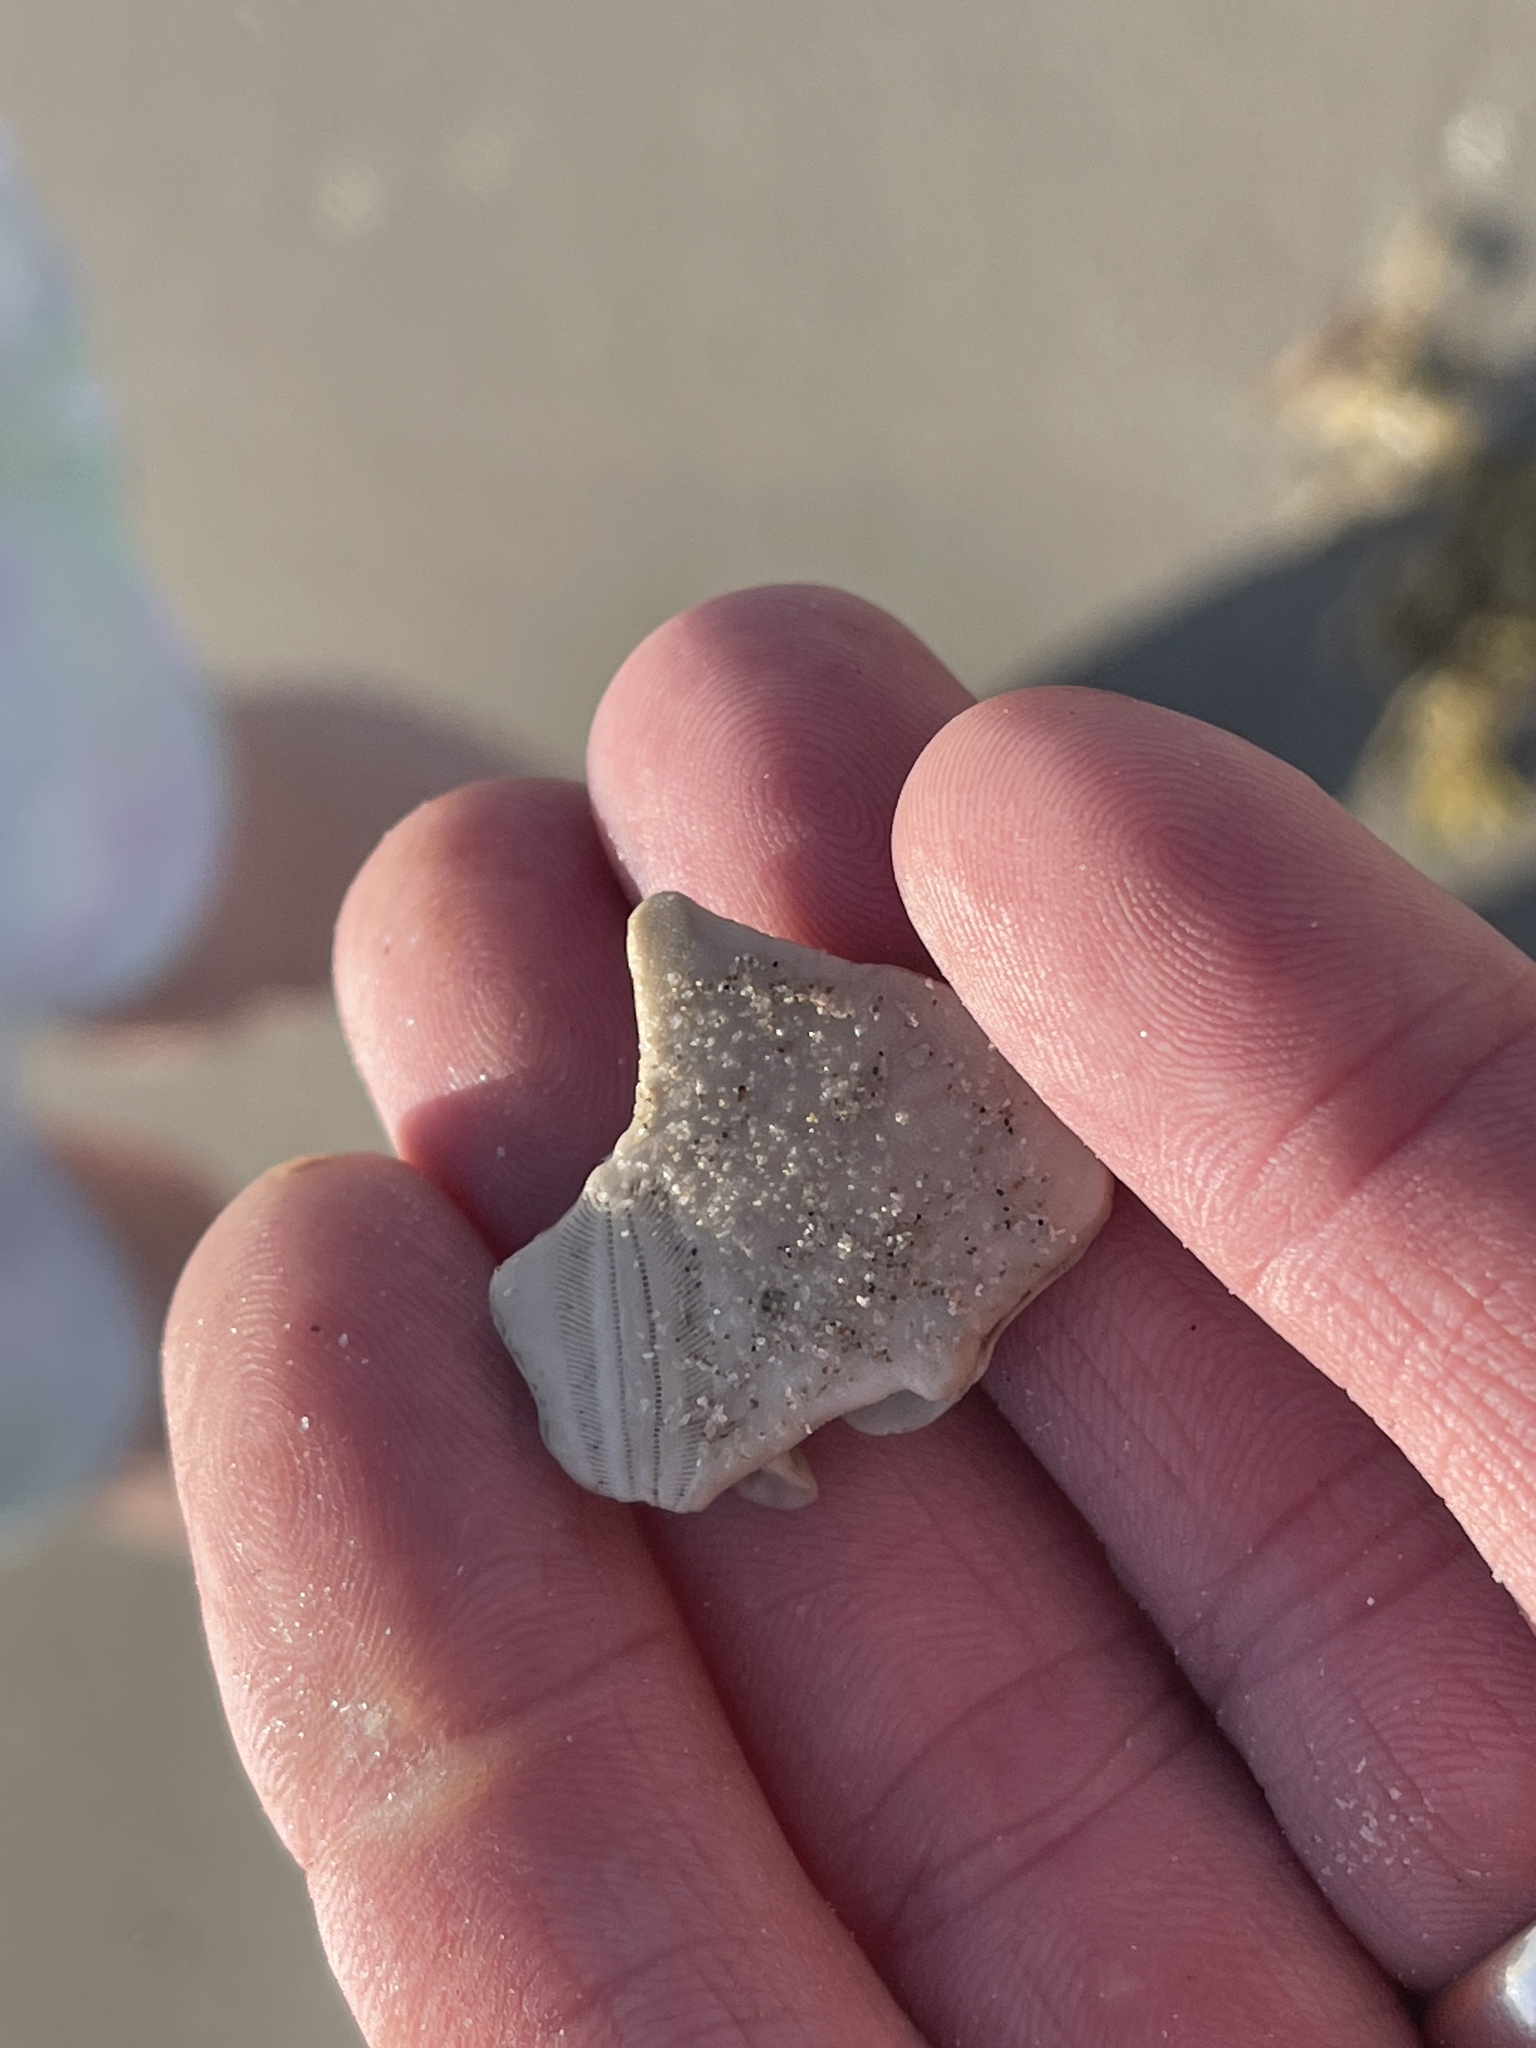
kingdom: Animalia
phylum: Echinodermata
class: Echinoidea
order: Echinolampadacea
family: Mellitidae
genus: Mellita
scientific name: Mellita quinquiesperforata
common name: Sand dollar
